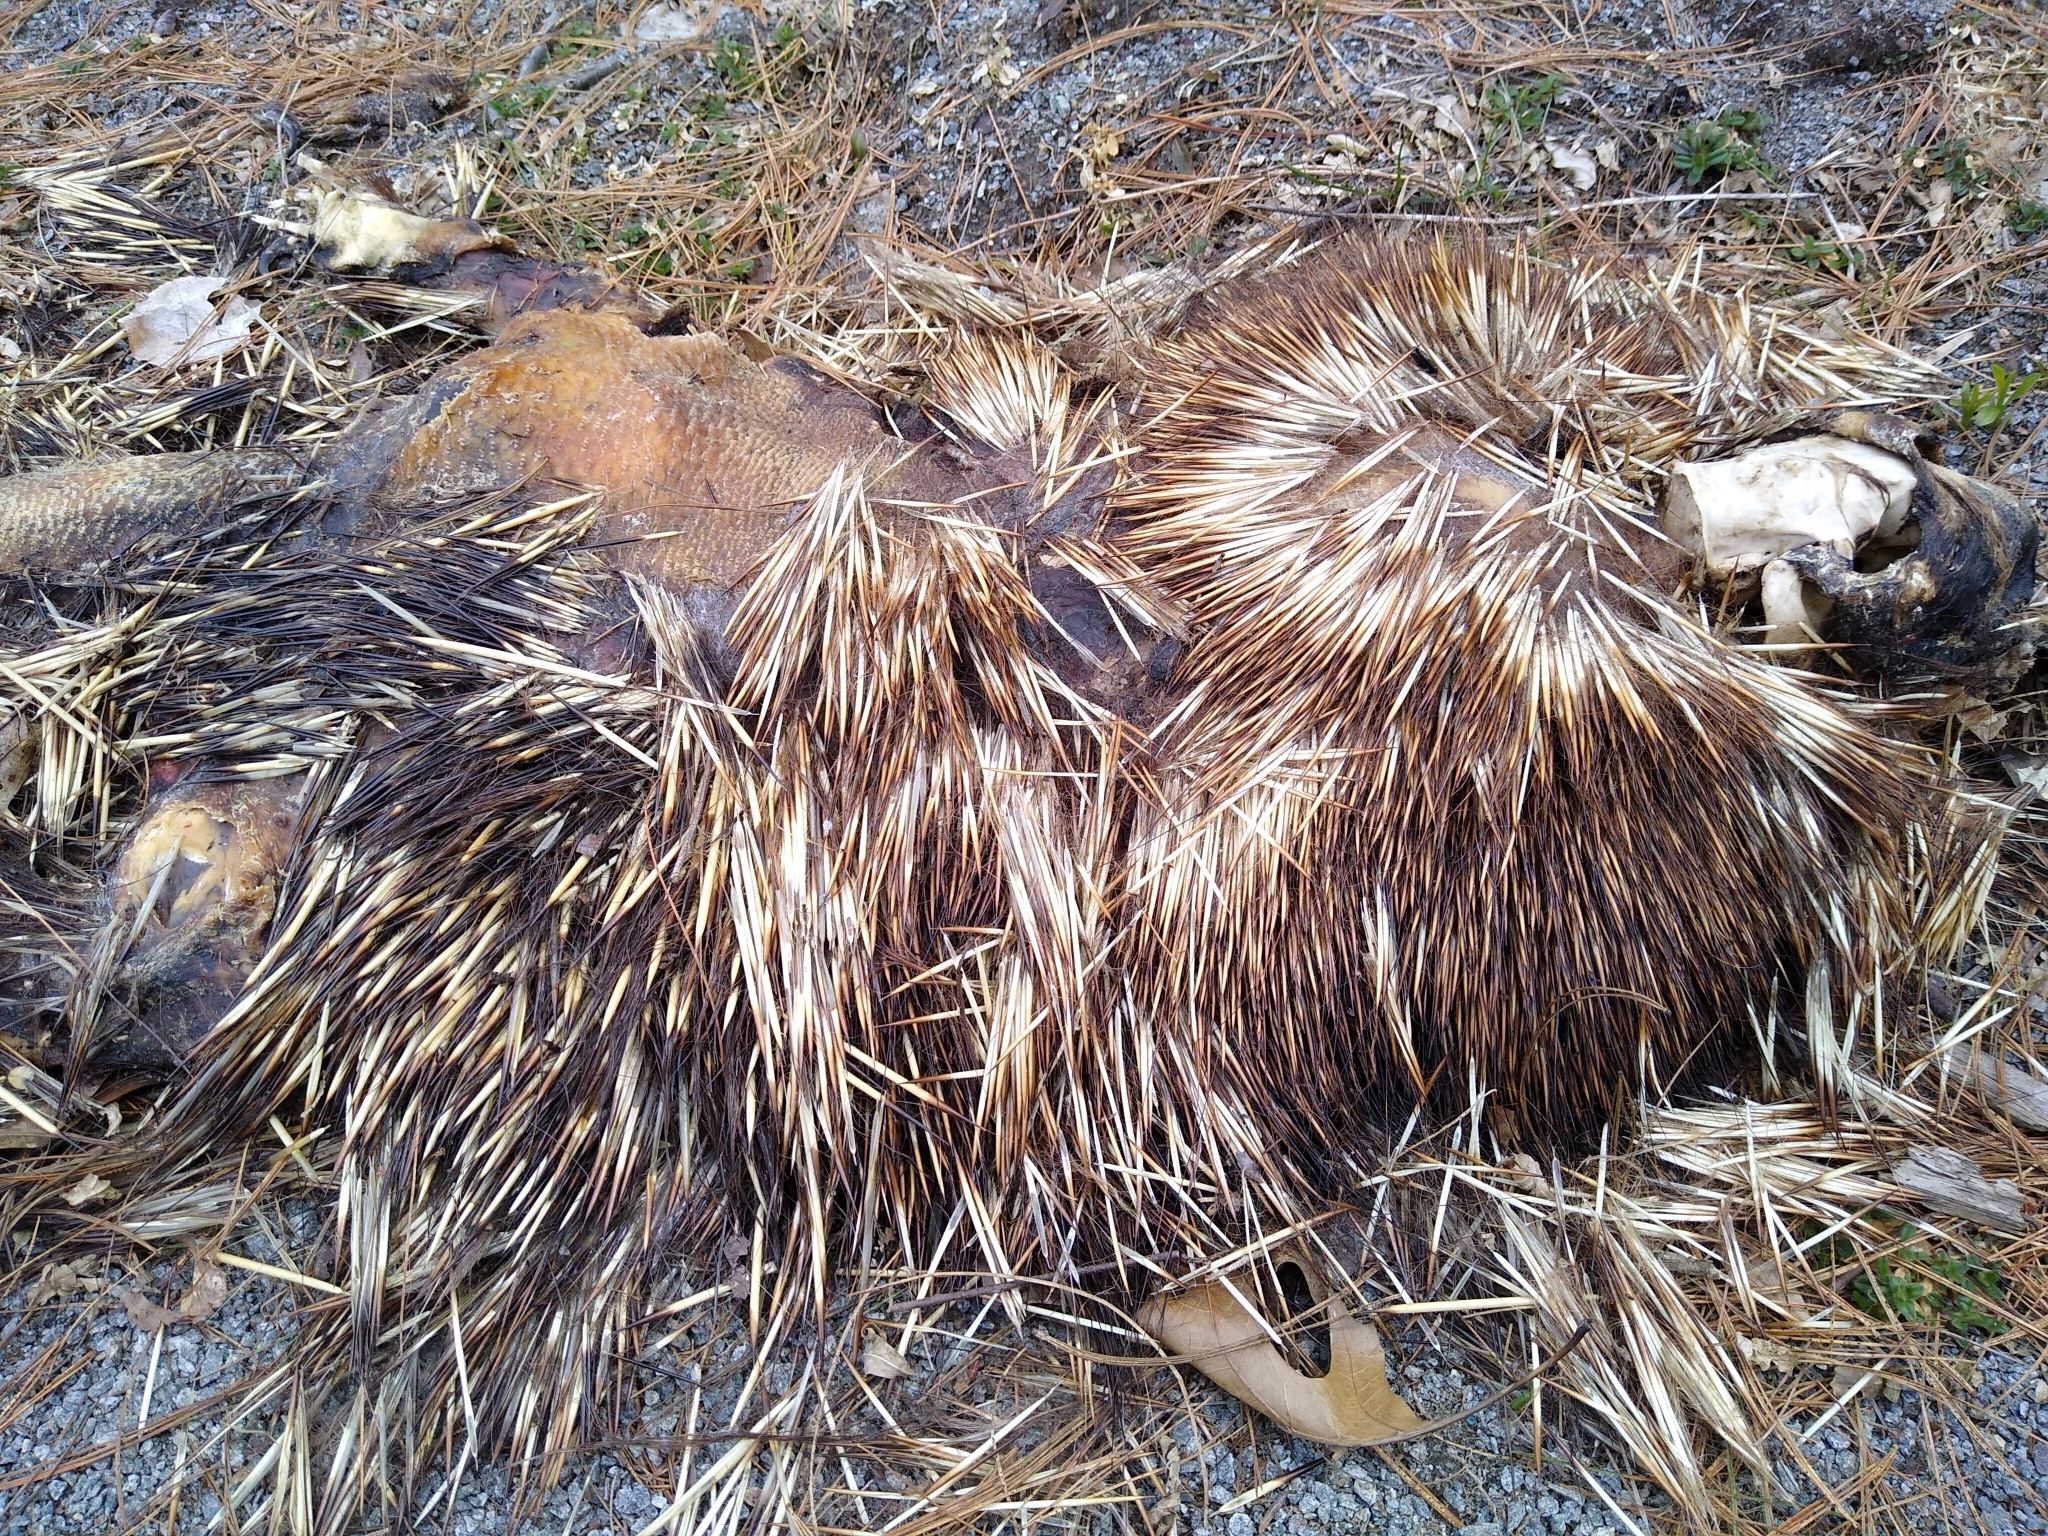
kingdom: Animalia
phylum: Chordata
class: Mammalia
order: Rodentia
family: Erethizontidae
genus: Erethizon
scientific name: Erethizon dorsatus
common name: North american porcupine
